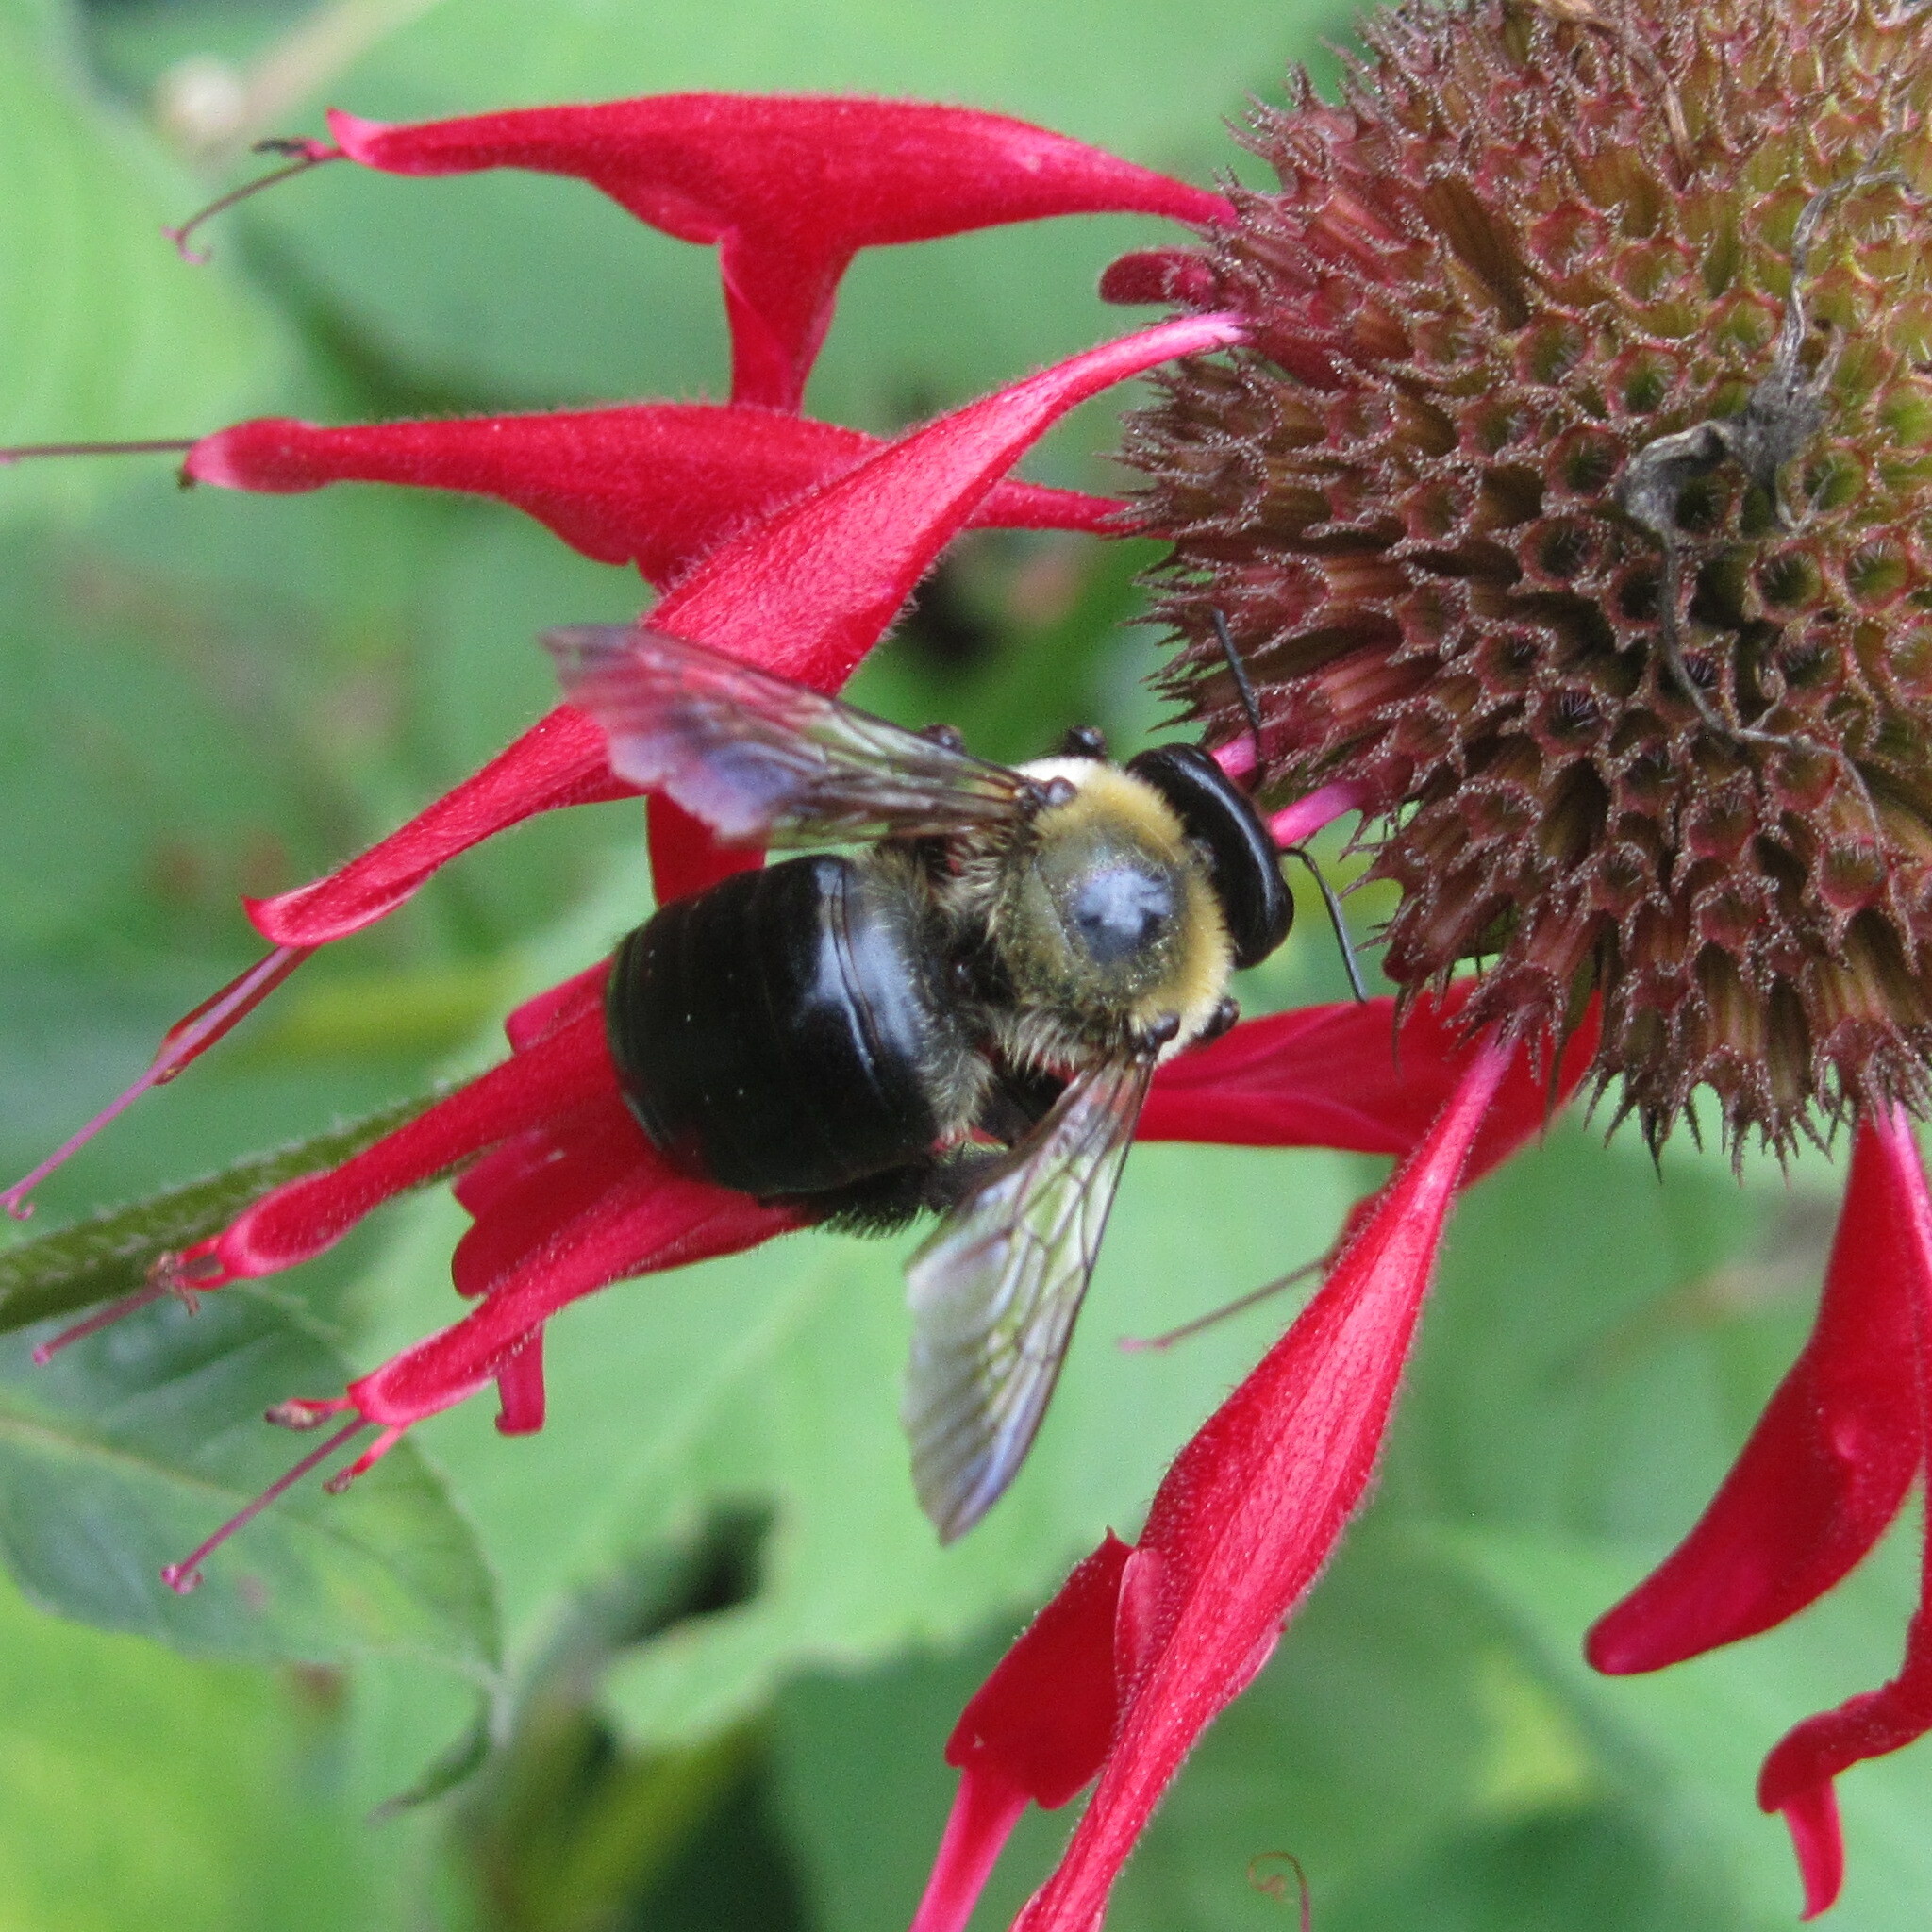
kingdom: Animalia
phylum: Arthropoda
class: Insecta
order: Hymenoptera
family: Apidae
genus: Xylocopa
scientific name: Xylocopa virginica
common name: Carpenter bee
